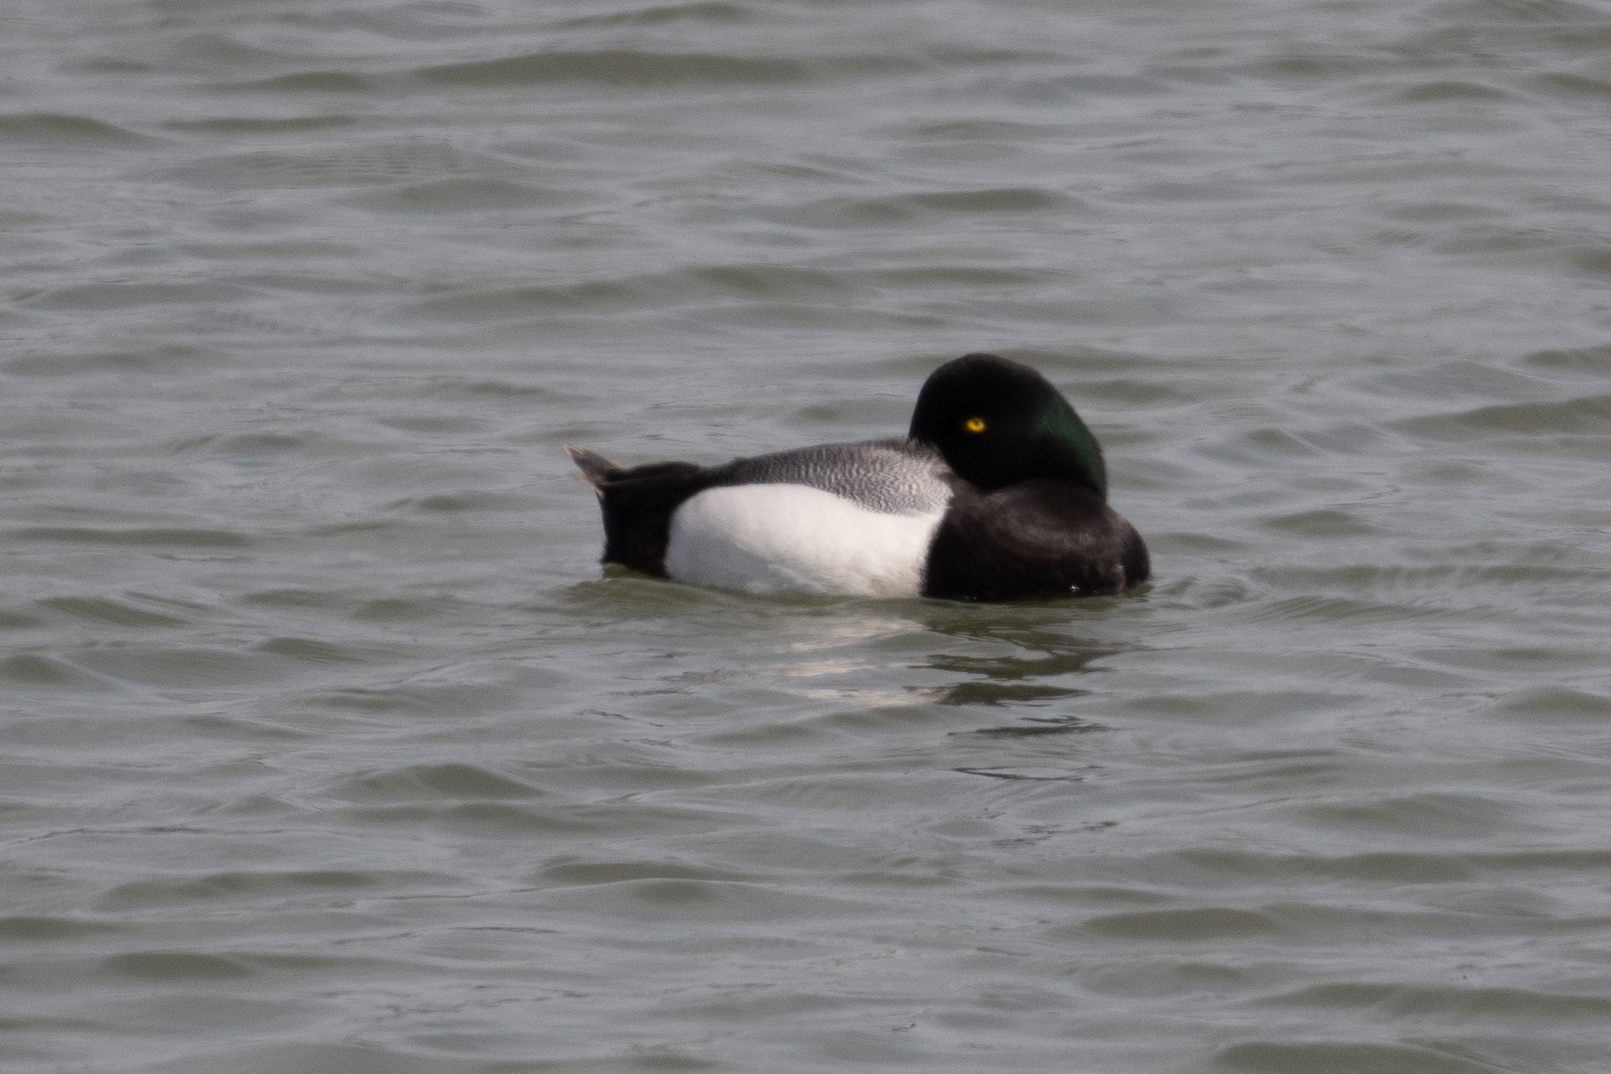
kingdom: Animalia
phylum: Chordata
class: Aves
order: Anseriformes
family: Anatidae
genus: Aythya
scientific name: Aythya marila
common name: Greater scaup
